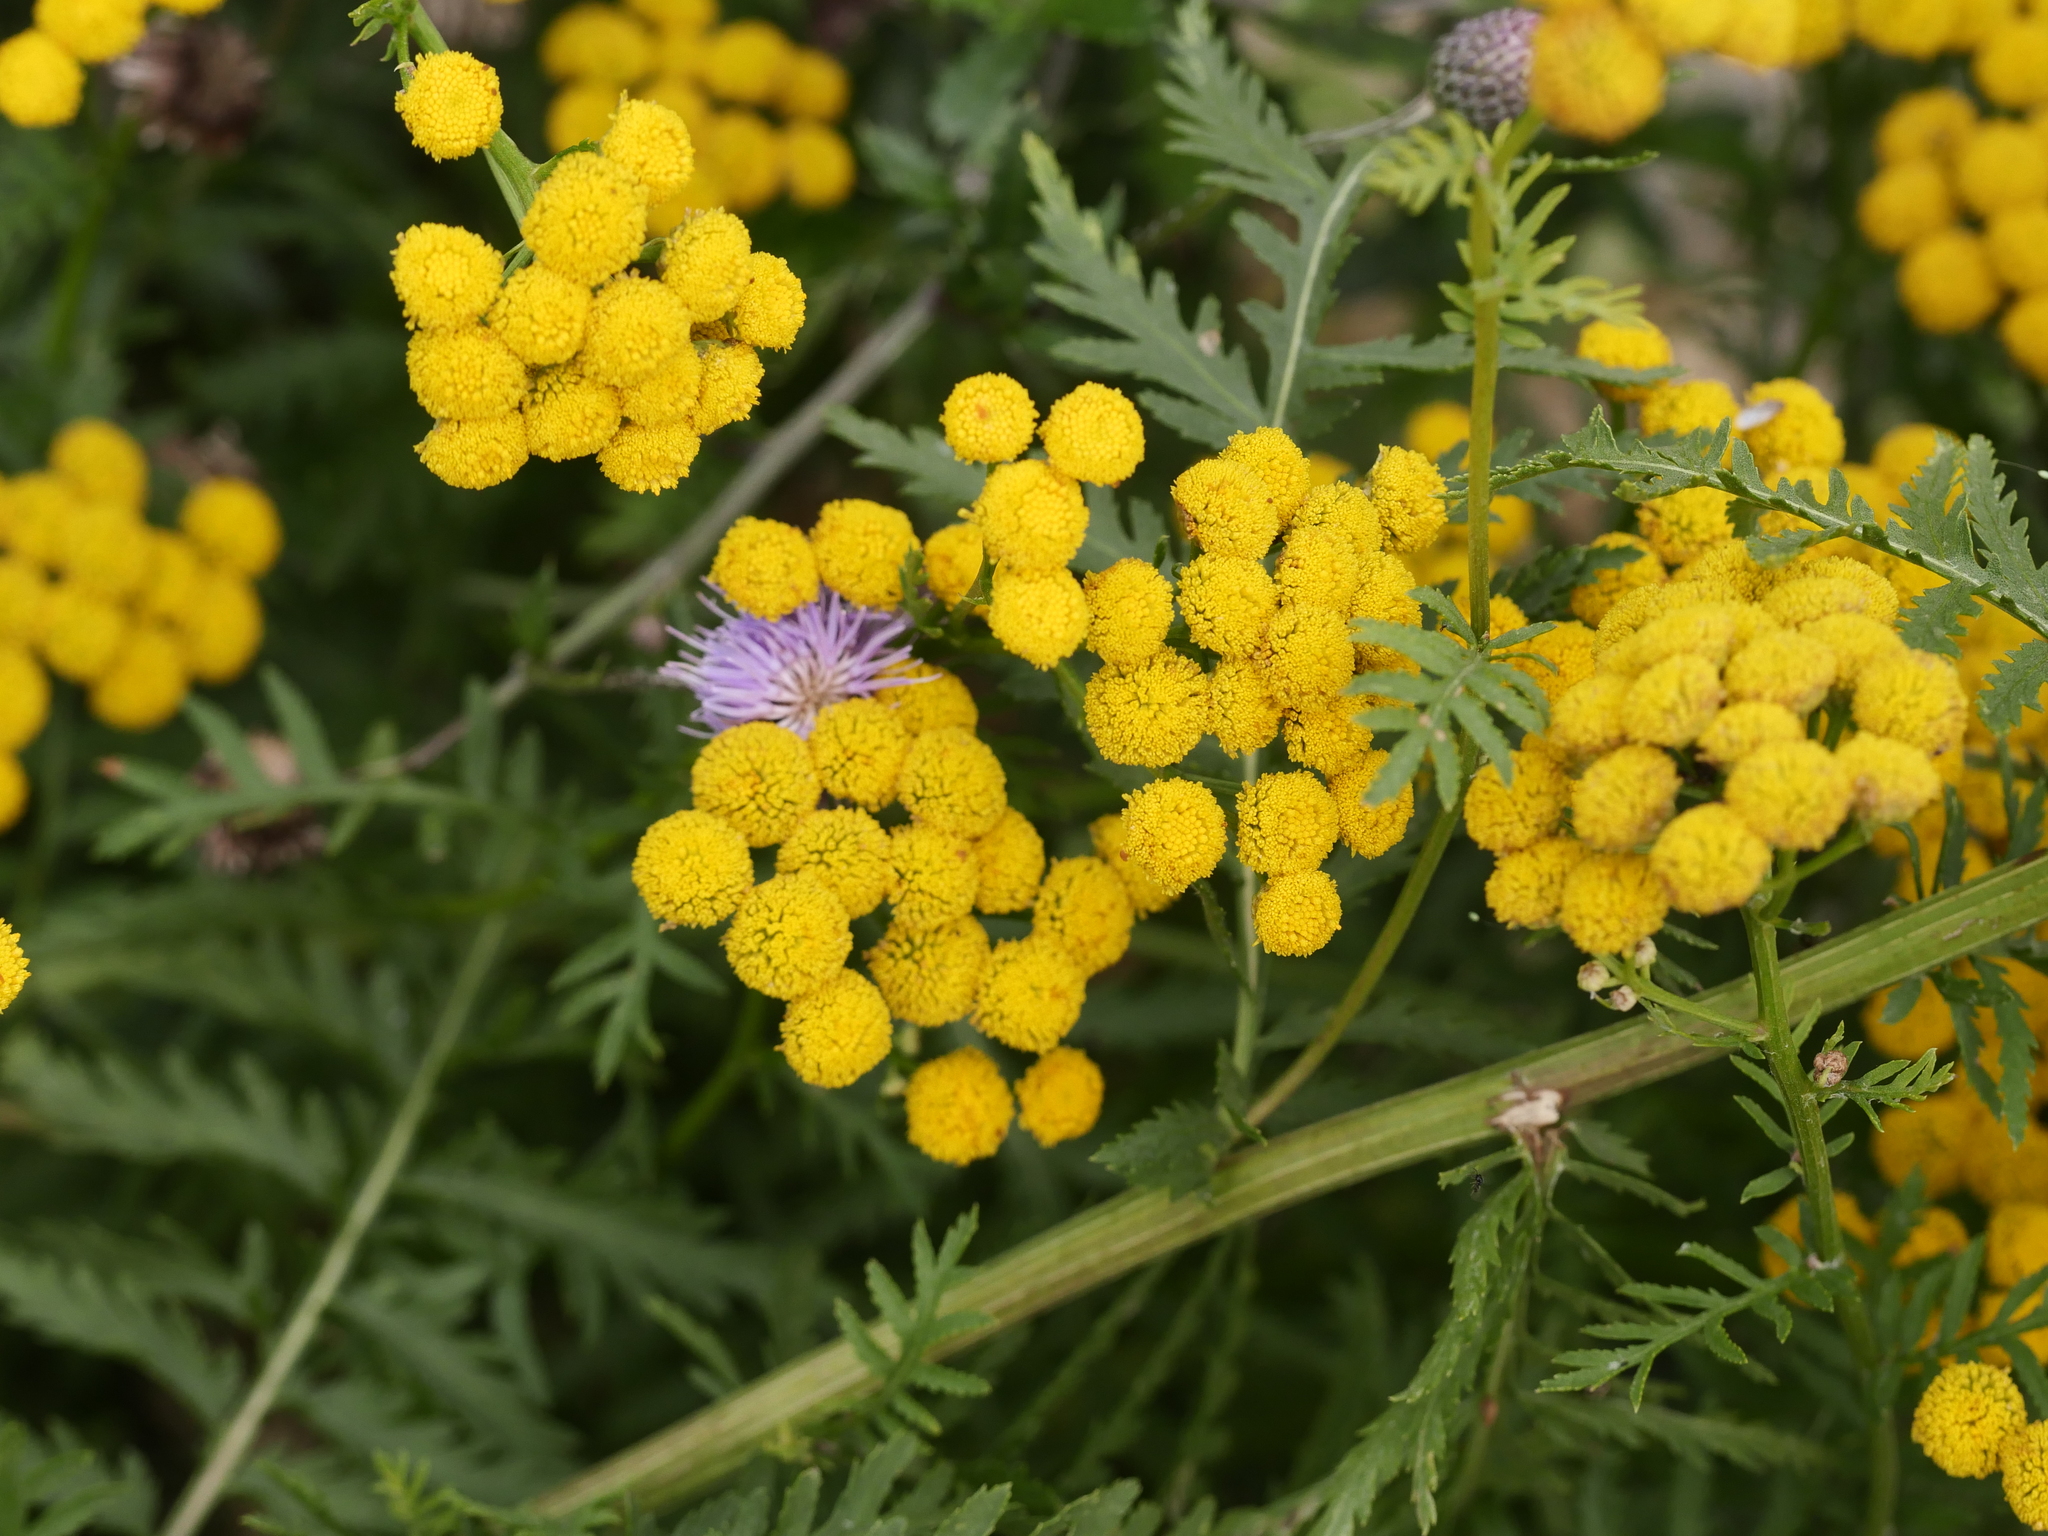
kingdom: Plantae
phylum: Tracheophyta
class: Magnoliopsida
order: Asterales
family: Asteraceae
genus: Tanacetum
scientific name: Tanacetum vulgare
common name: Common tansy
